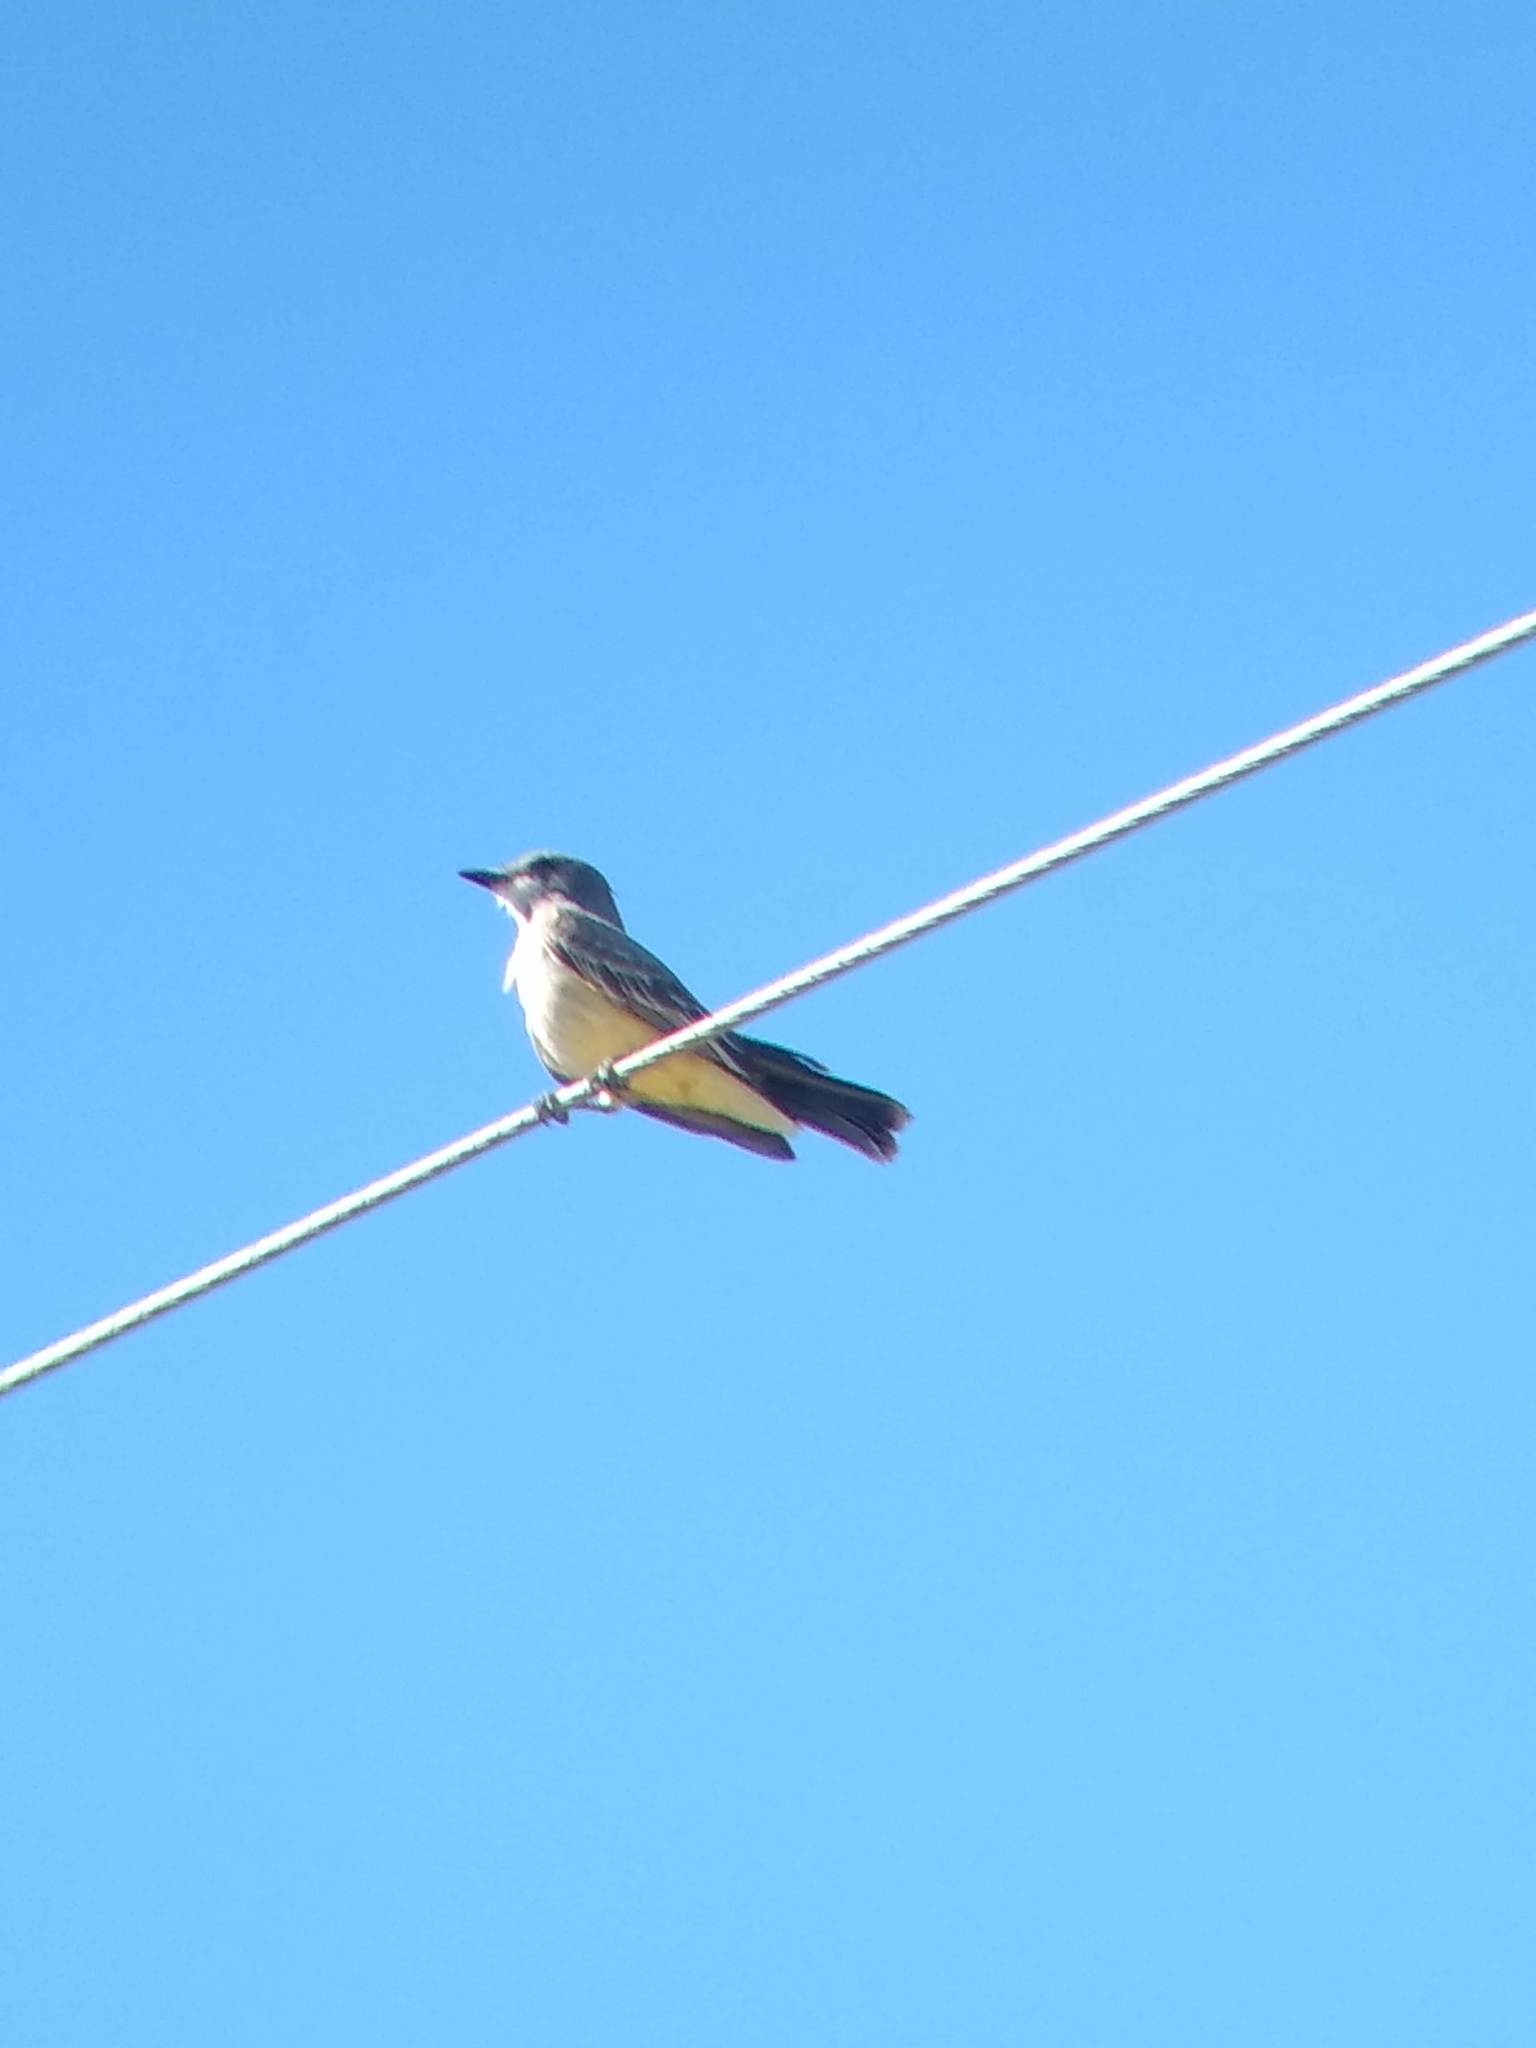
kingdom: Animalia
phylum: Chordata
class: Aves
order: Passeriformes
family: Tyrannidae
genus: Tyrannus
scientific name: Tyrannus vociferans
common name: Cassin's kingbird
